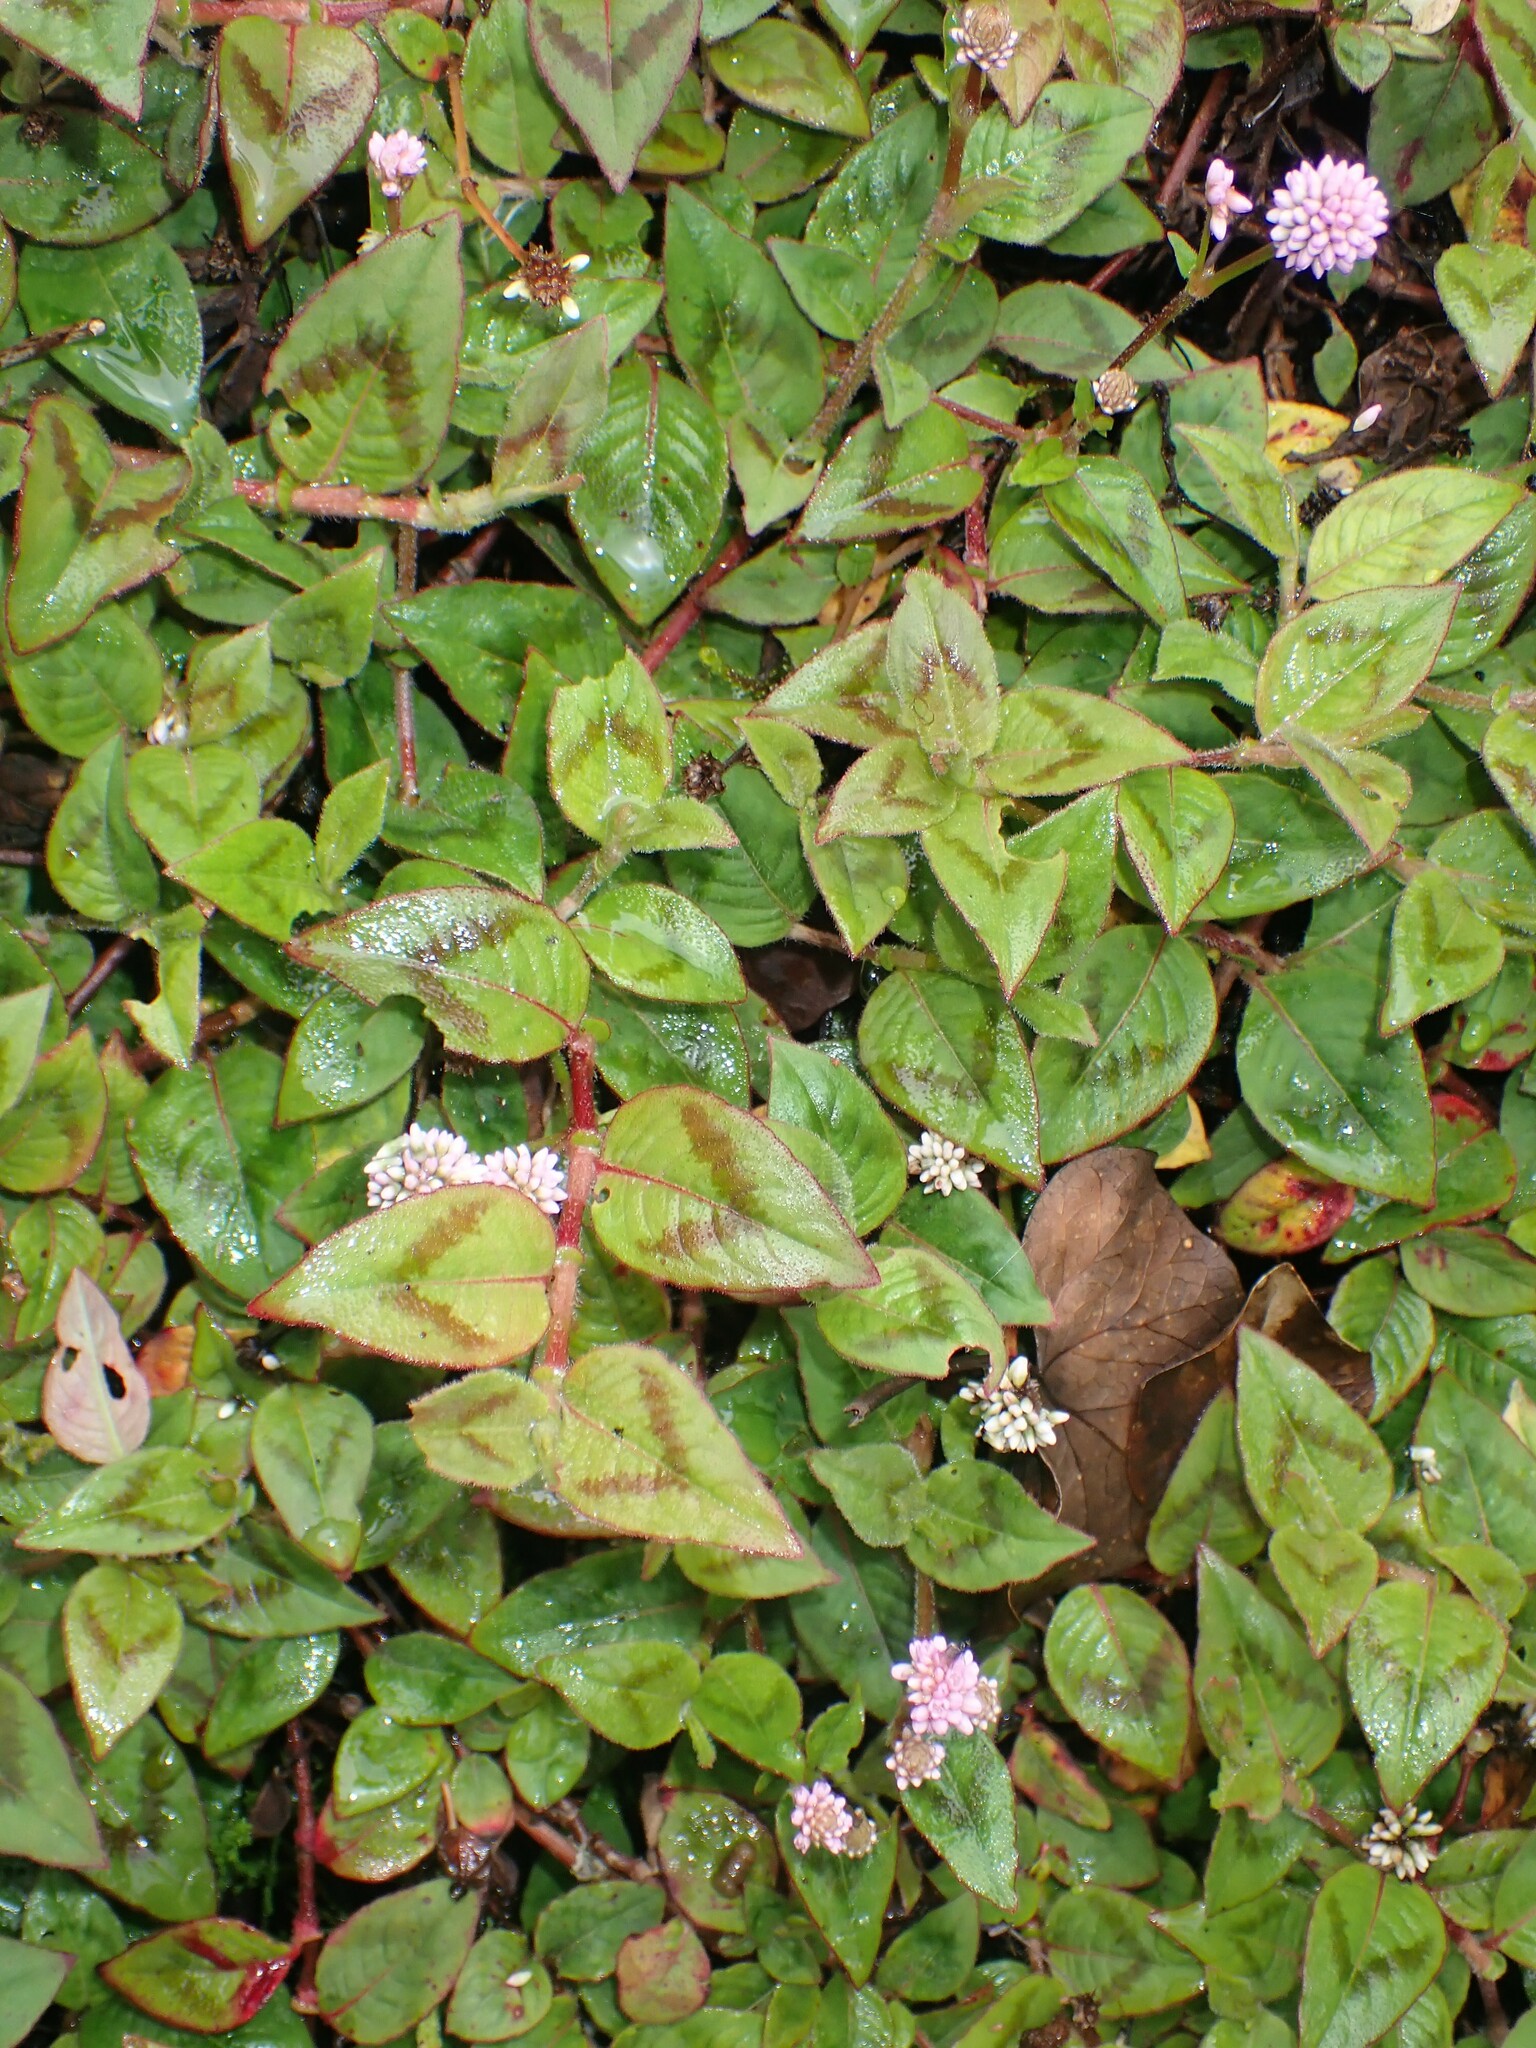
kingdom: Plantae
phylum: Tracheophyta
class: Magnoliopsida
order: Caryophyllales
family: Polygonaceae
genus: Persicaria
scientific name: Persicaria capitata
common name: Pinkhead smartweed
